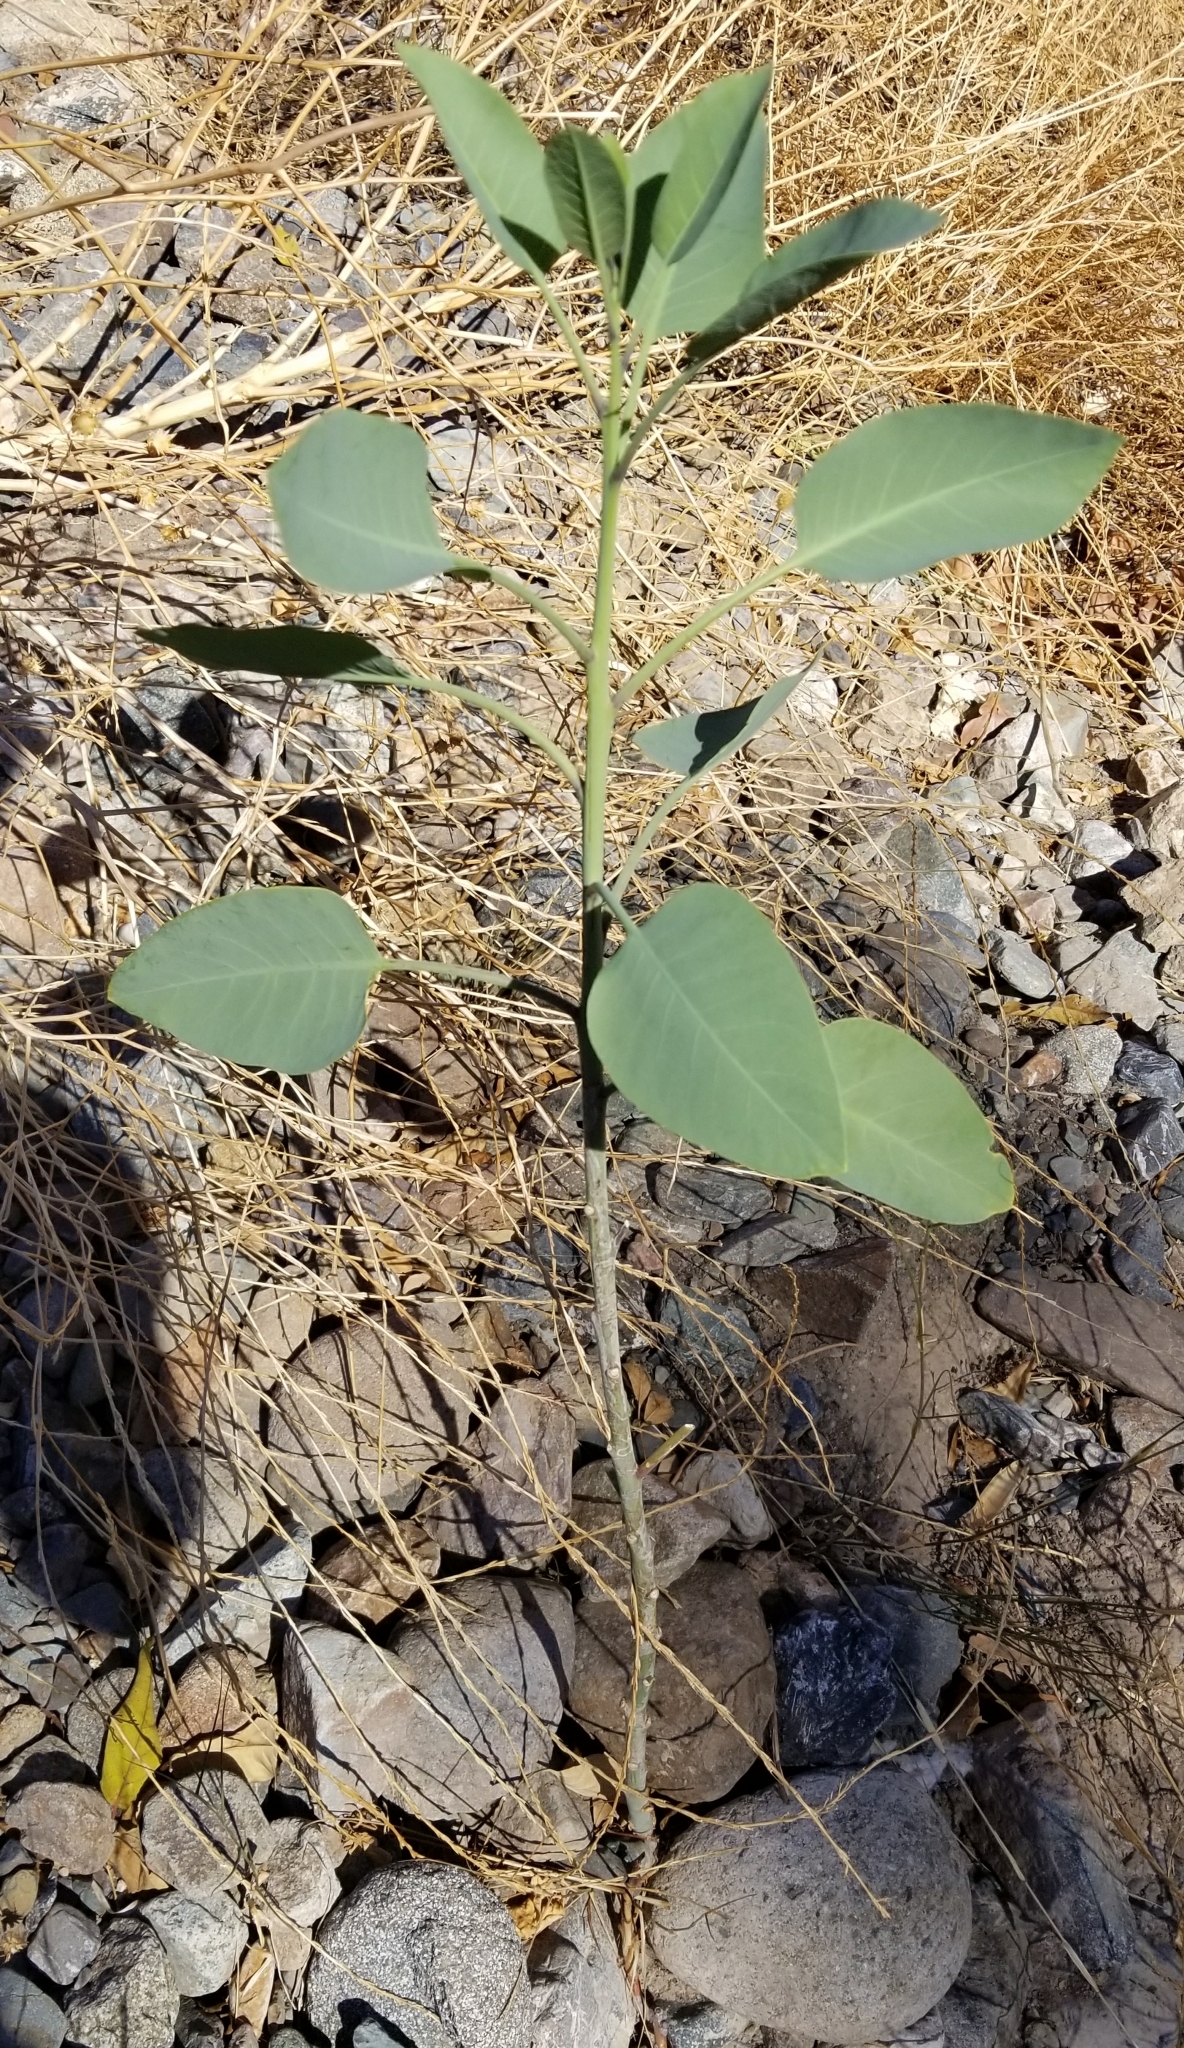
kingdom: Plantae
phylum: Tracheophyta
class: Magnoliopsida
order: Solanales
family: Solanaceae
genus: Nicotiana
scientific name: Nicotiana glauca
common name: Tree tobacco
